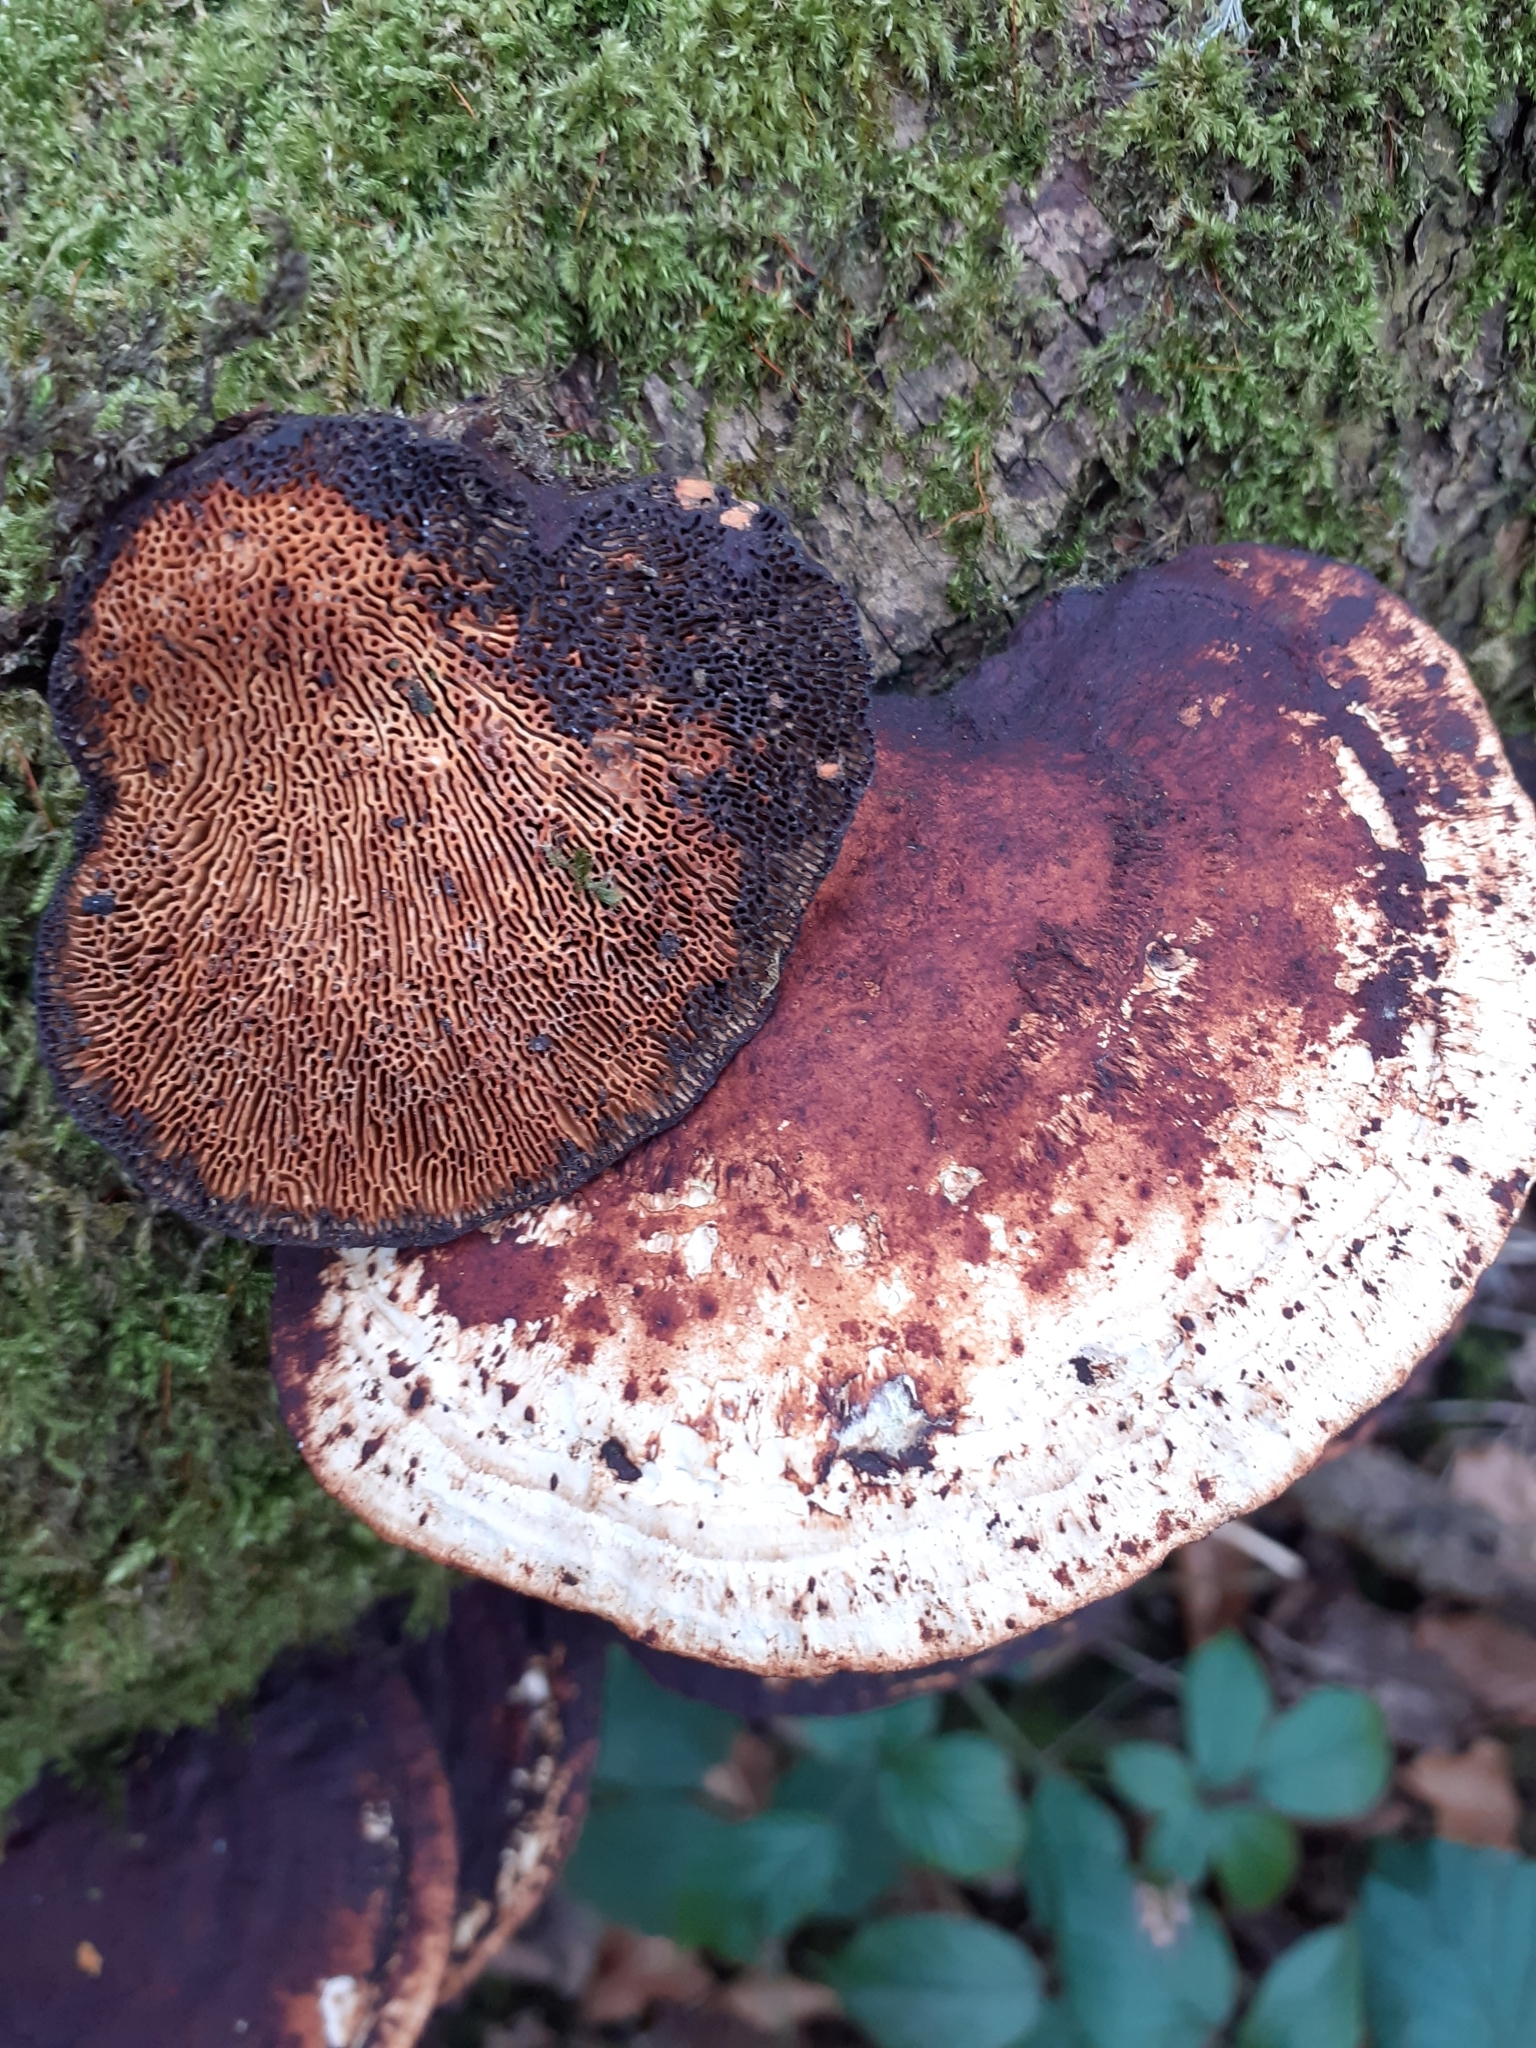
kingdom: Fungi
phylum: Basidiomycota
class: Agaricomycetes
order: Polyporales
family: Polyporaceae
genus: Daedaleopsis
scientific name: Daedaleopsis confragosa
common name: Blushing bracket
